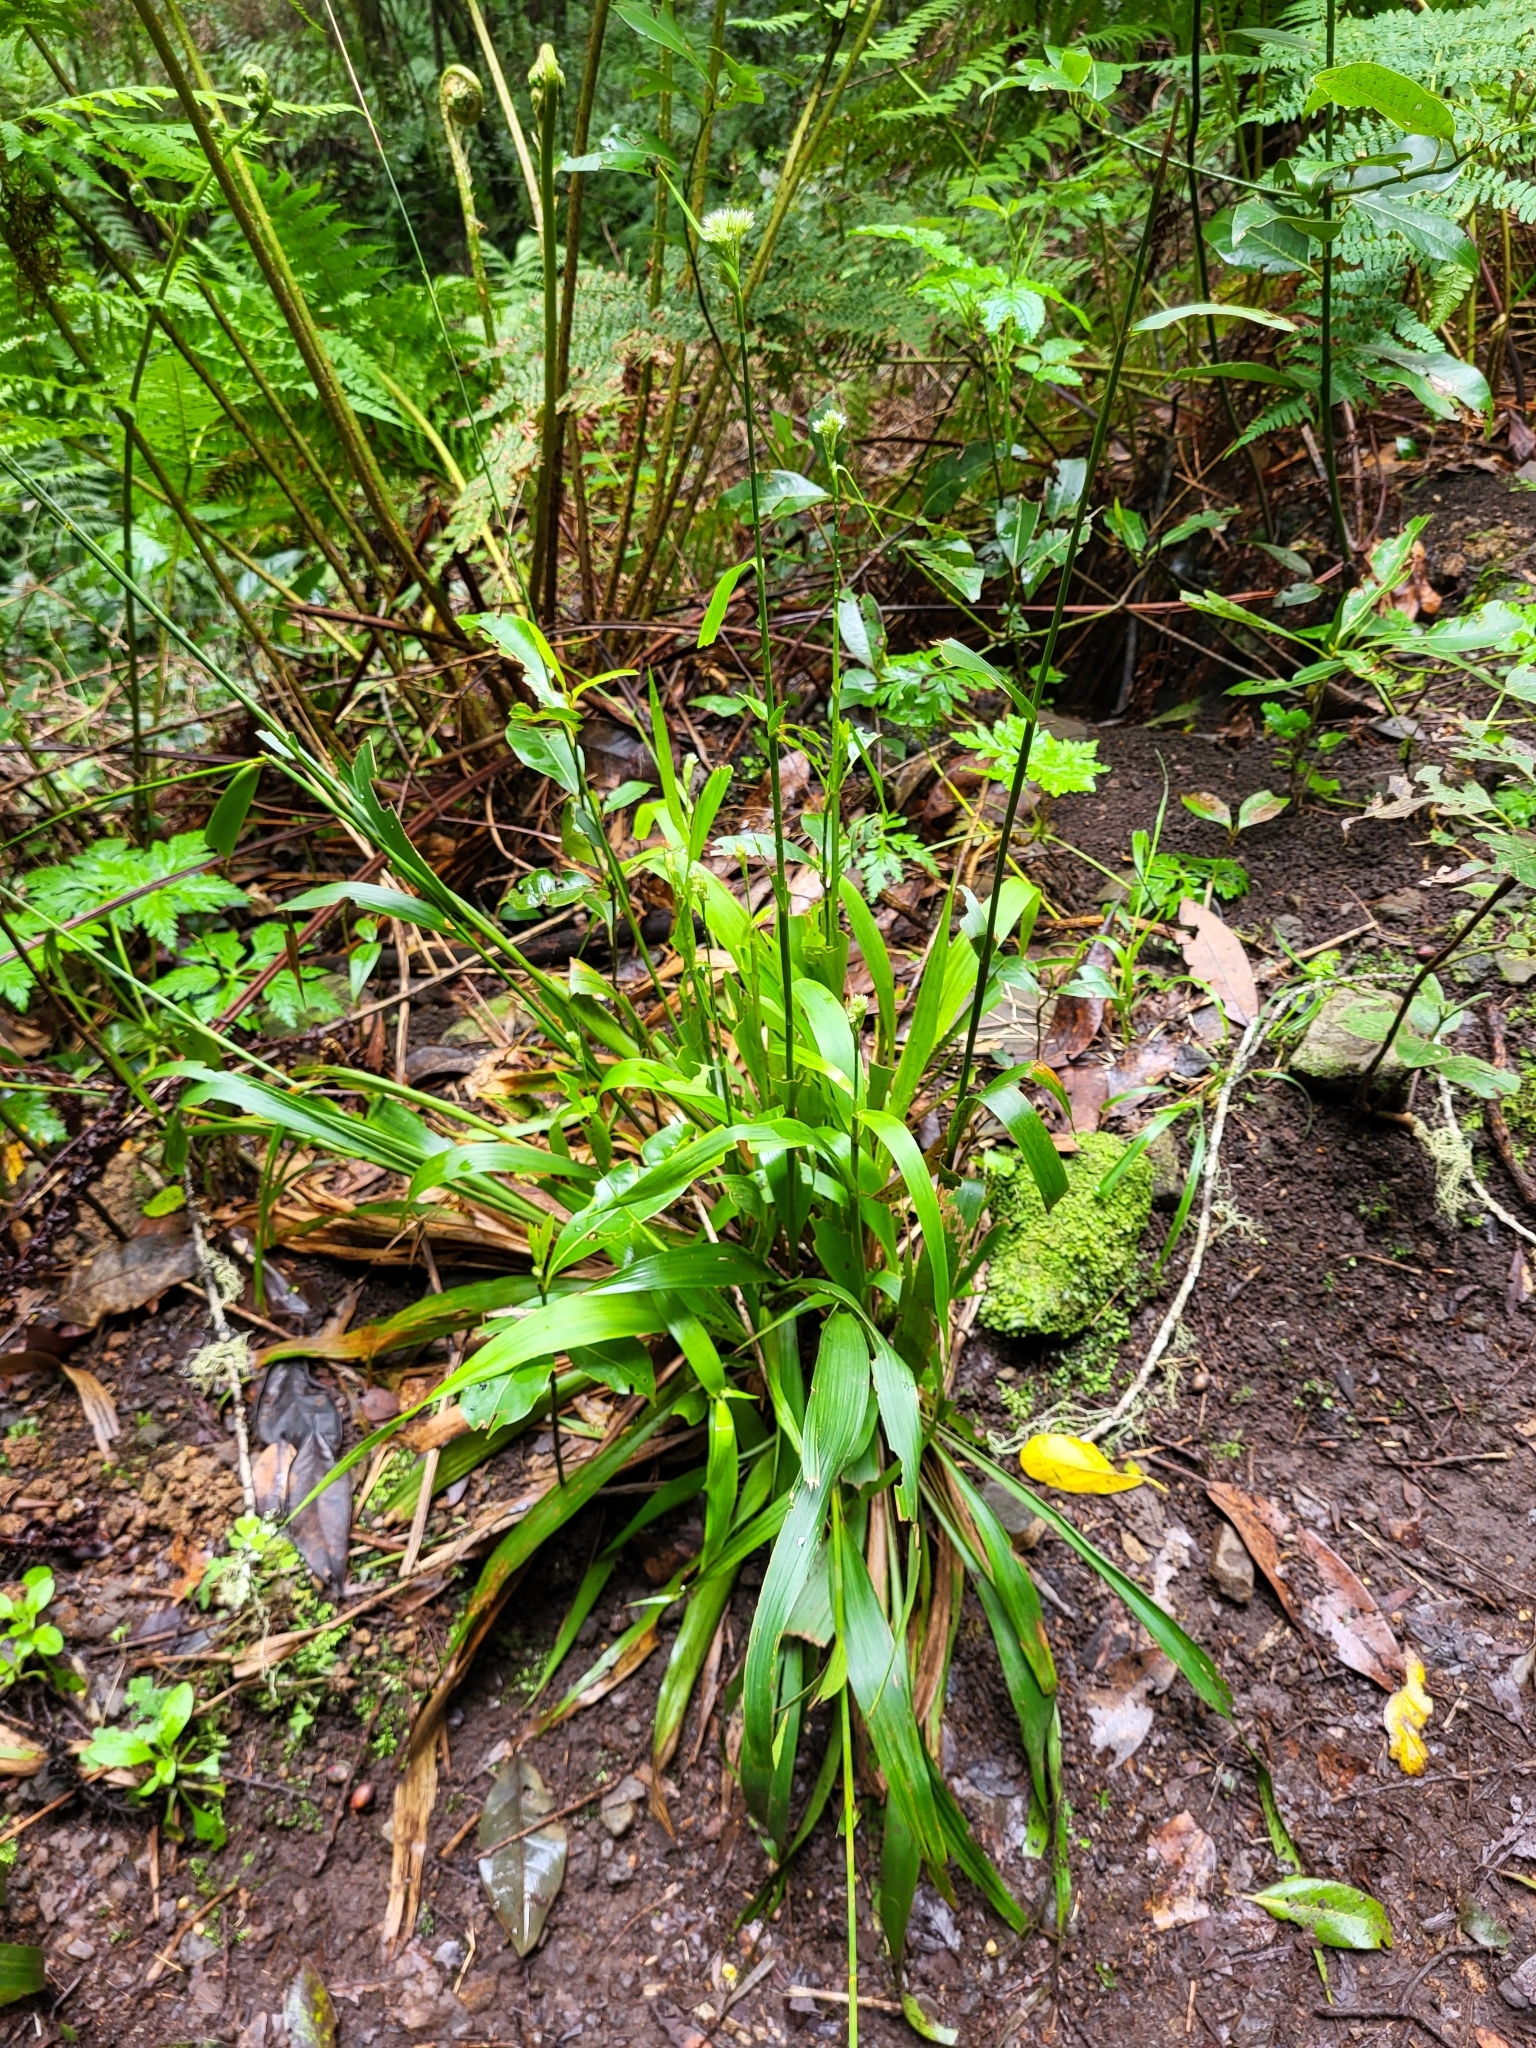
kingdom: Plantae
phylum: Tracheophyta
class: Liliopsida
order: Poales
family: Juncaceae
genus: Luzula
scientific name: Luzula canariensis
